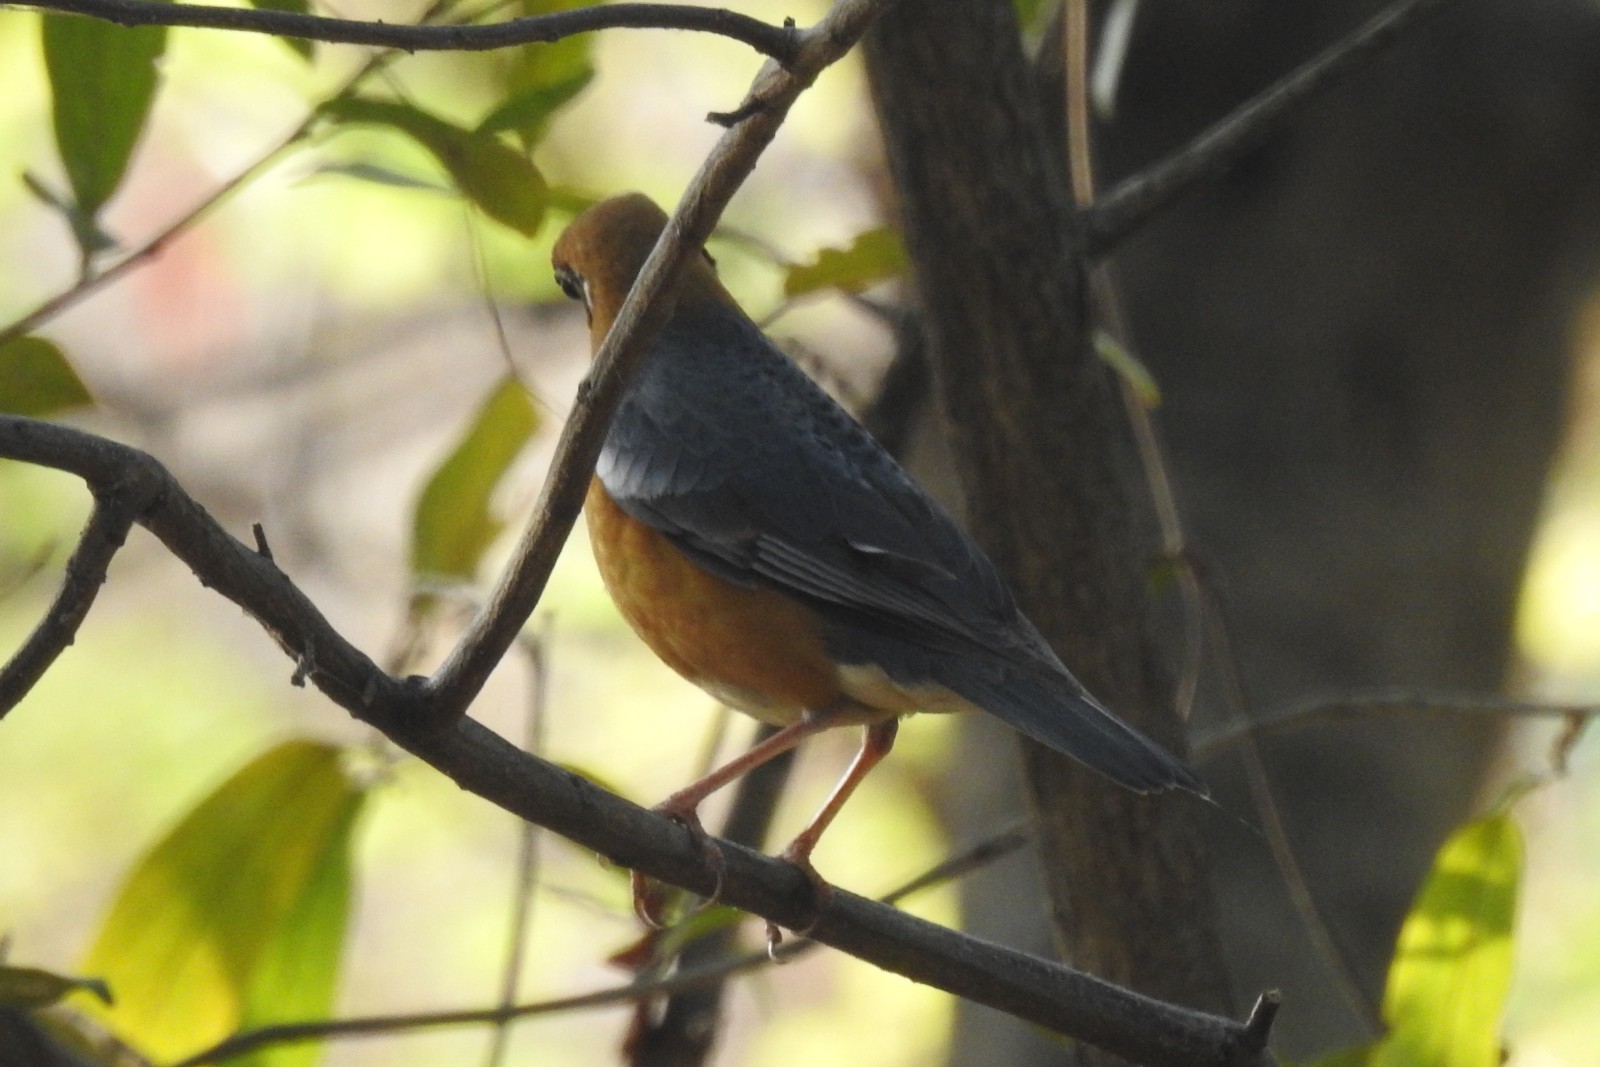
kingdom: Animalia
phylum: Chordata
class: Aves
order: Passeriformes
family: Turdidae
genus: Geokichla
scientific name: Geokichla citrina
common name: Orange-headed thrush
